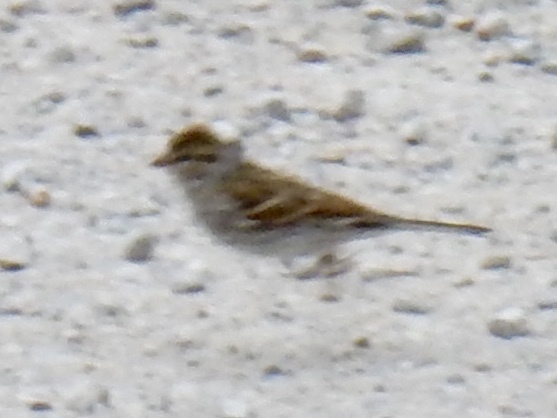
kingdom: Animalia
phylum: Chordata
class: Aves
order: Passeriformes
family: Passerellidae
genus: Spizella
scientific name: Spizella passerina
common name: Chipping sparrow
